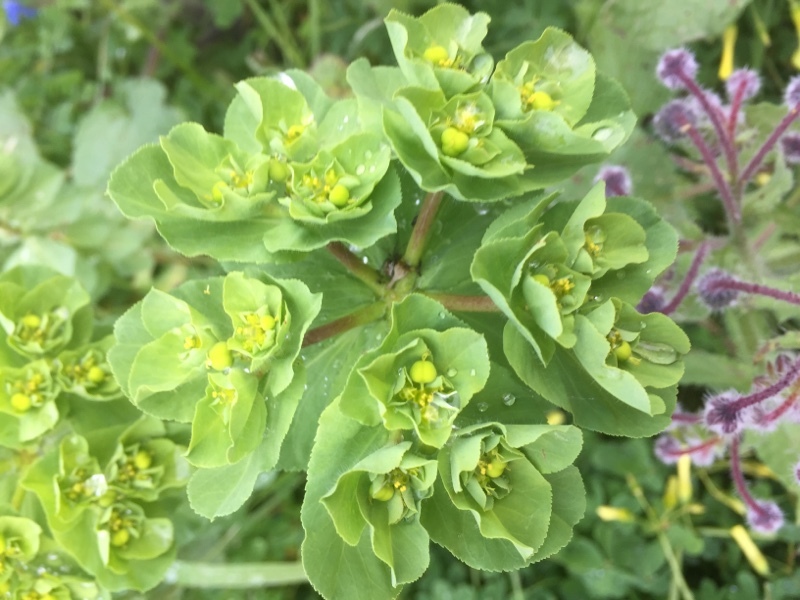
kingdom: Plantae
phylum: Tracheophyta
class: Magnoliopsida
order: Malpighiales
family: Euphorbiaceae
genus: Euphorbia
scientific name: Euphorbia helioscopia
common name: Sun spurge
